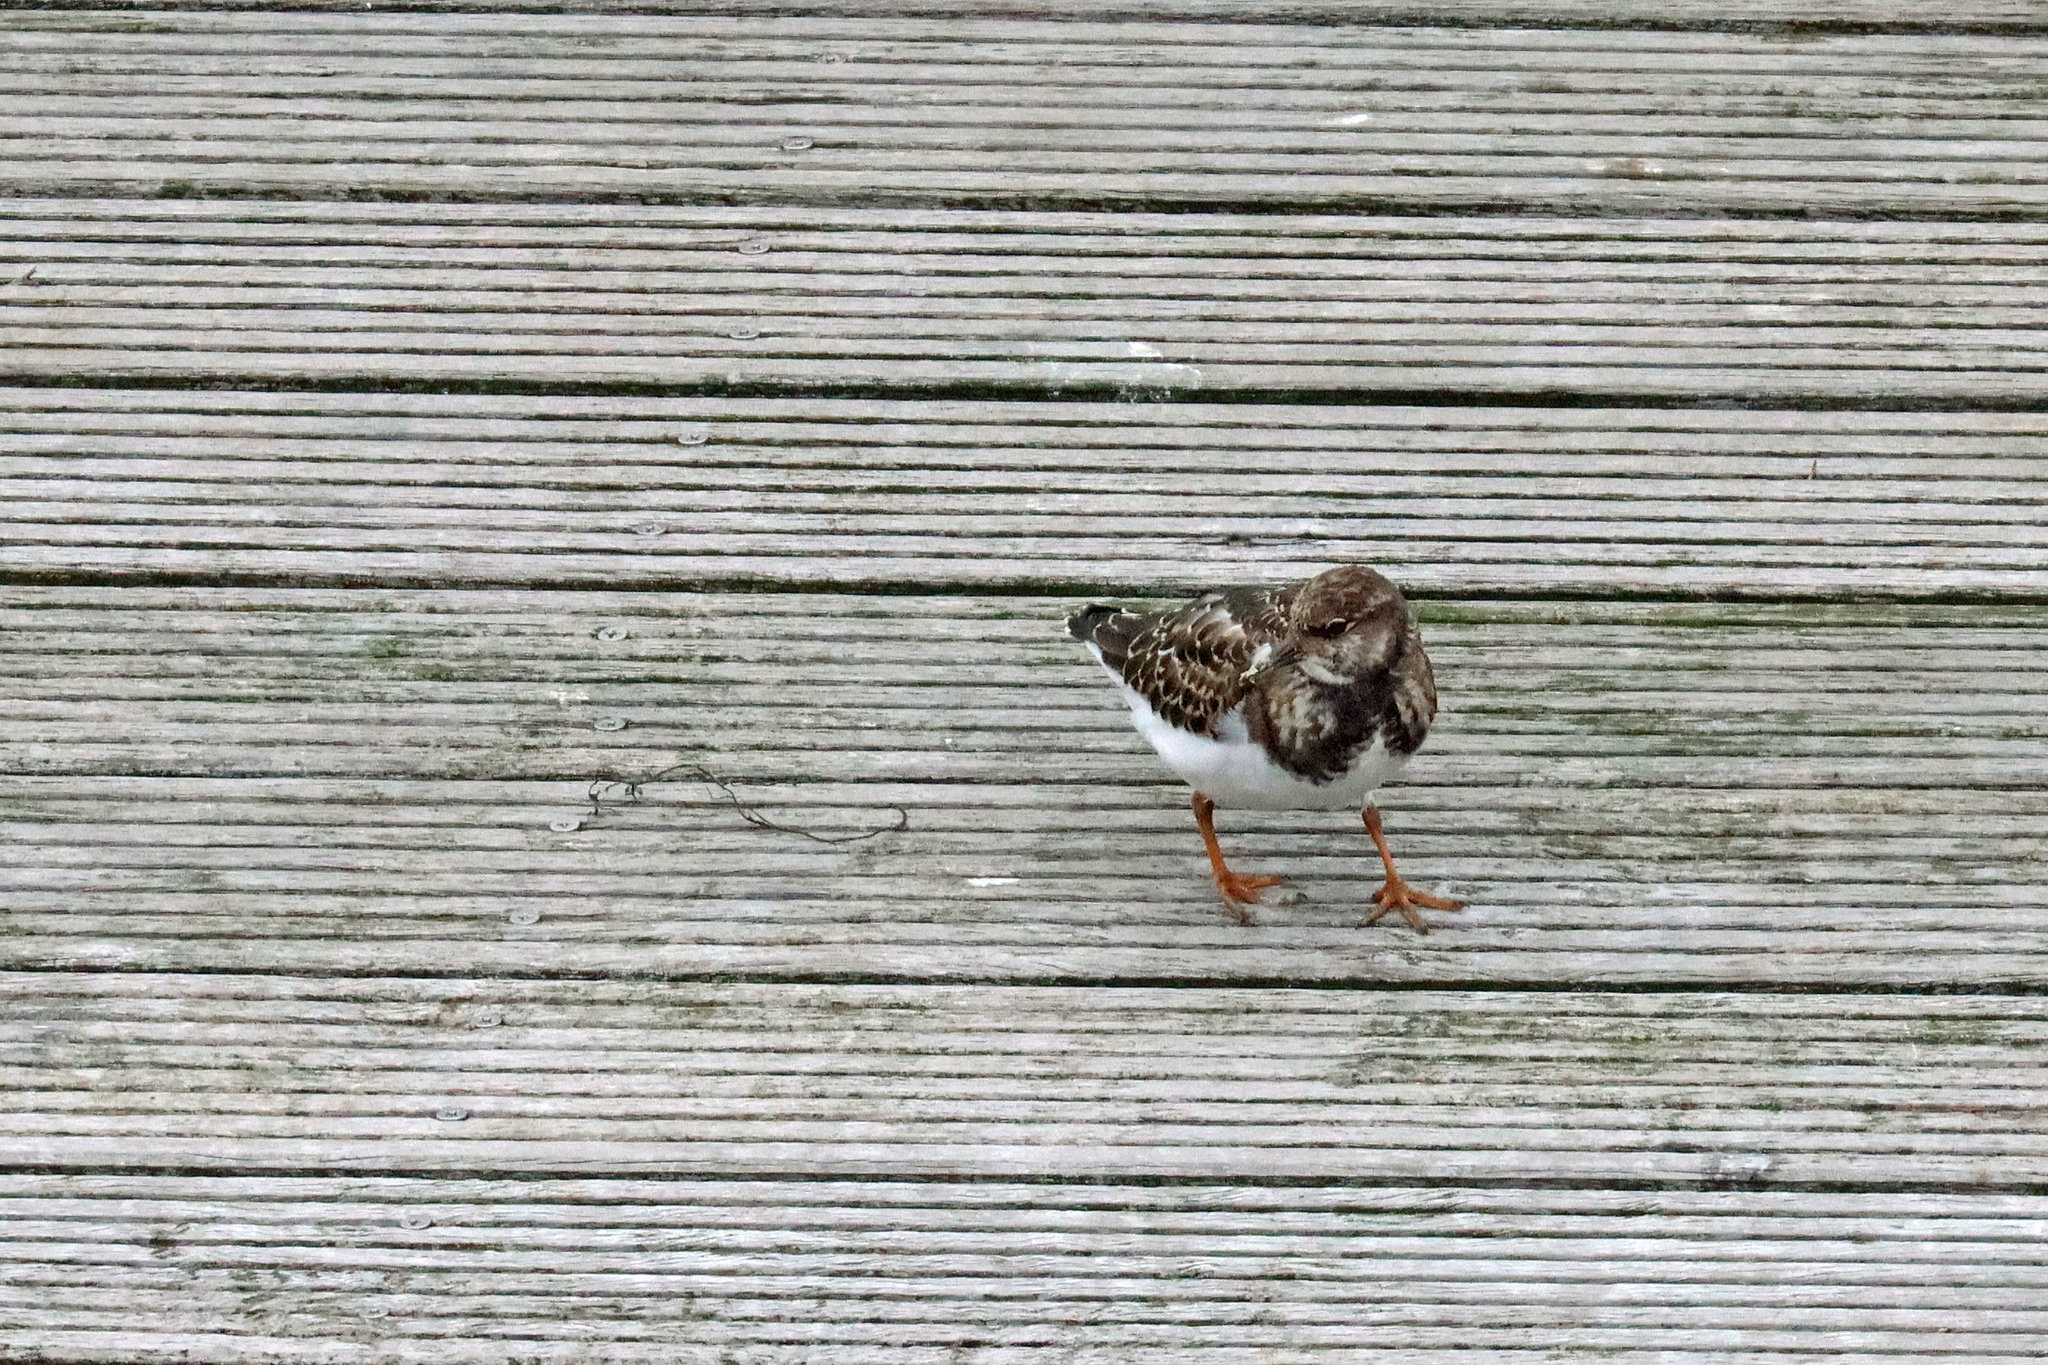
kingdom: Animalia
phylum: Chordata
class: Aves
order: Charadriiformes
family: Scolopacidae
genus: Arenaria
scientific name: Arenaria interpres
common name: Ruddy turnstone
